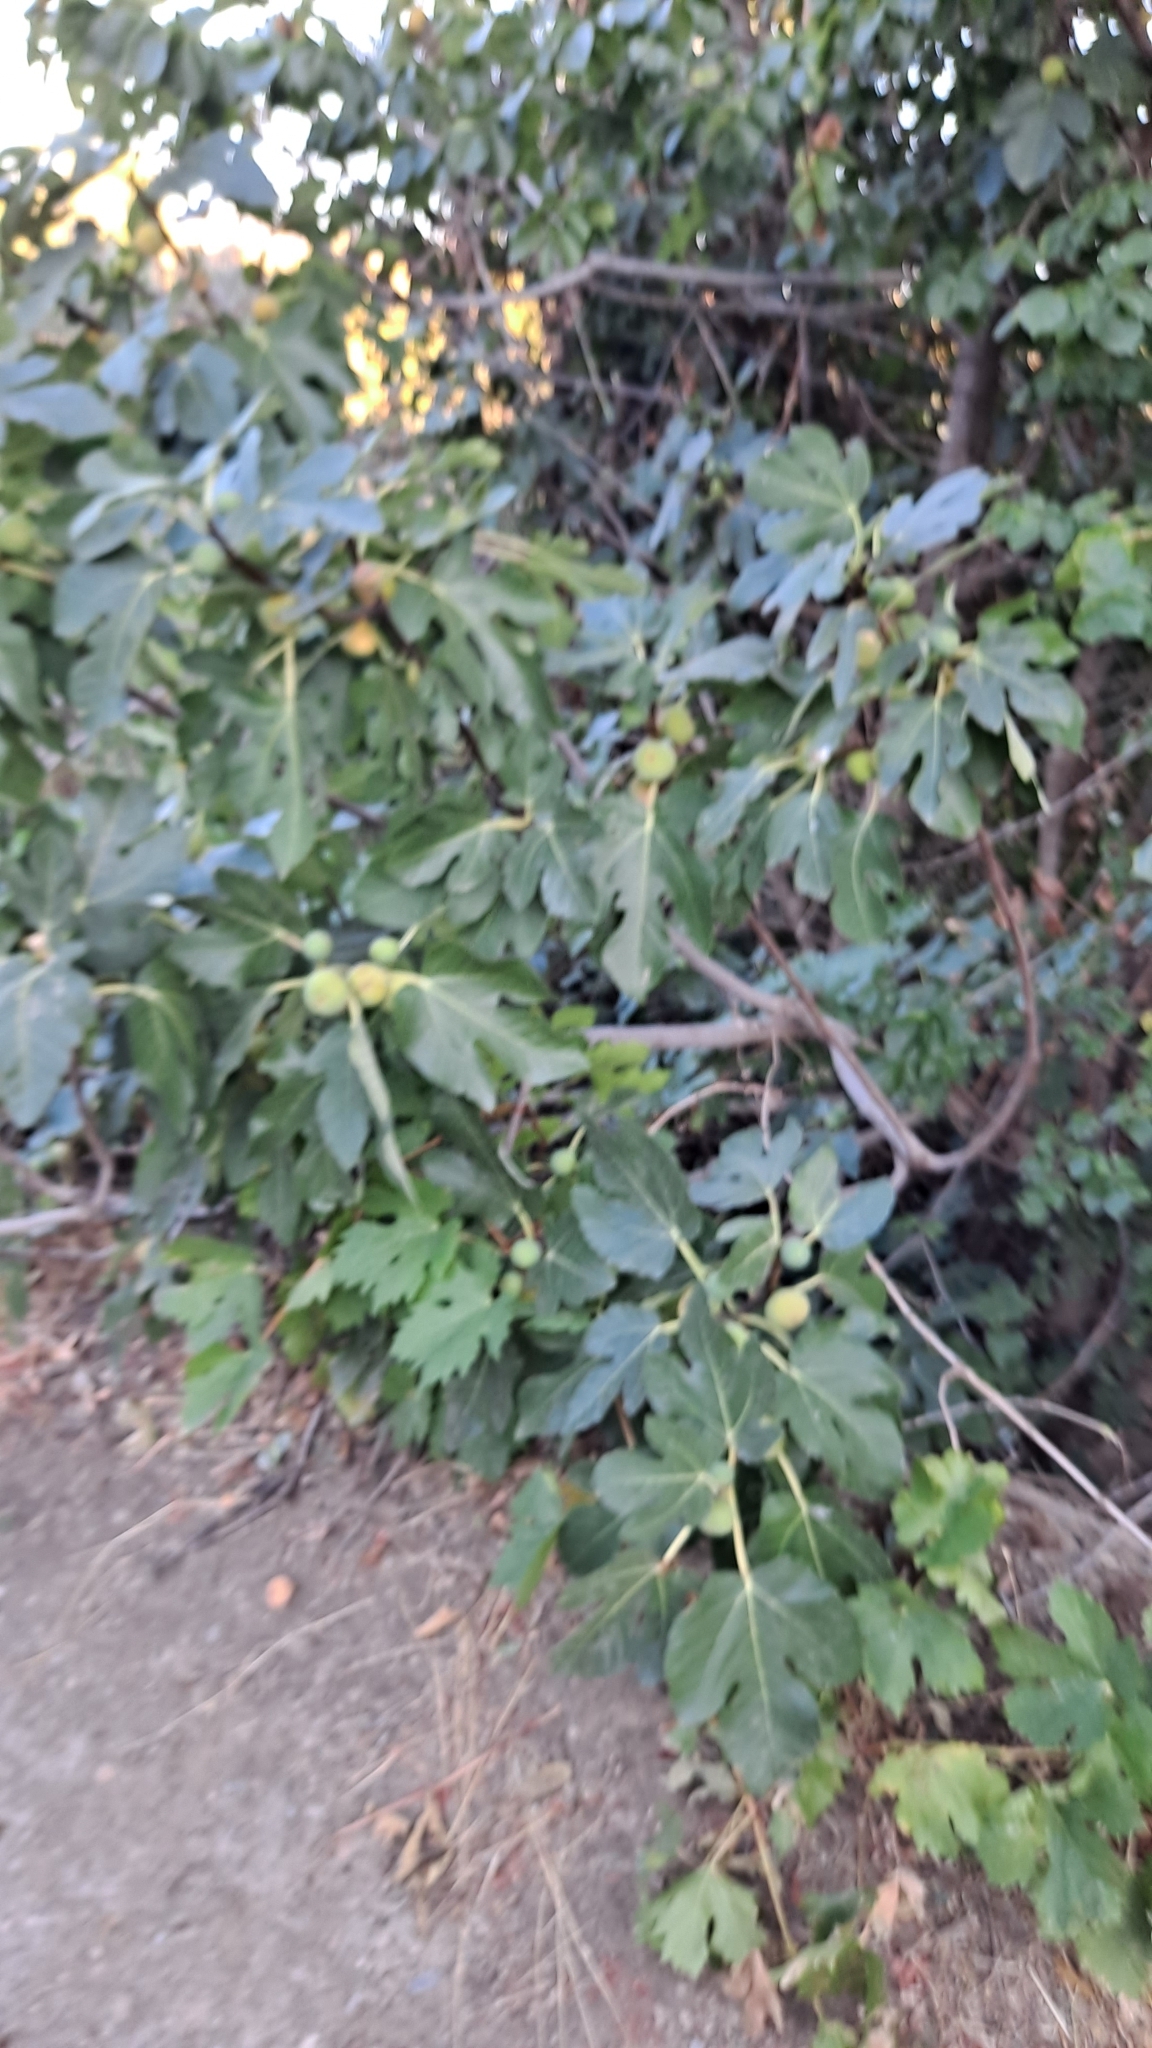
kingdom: Plantae
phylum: Tracheophyta
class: Magnoliopsida
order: Rosales
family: Moraceae
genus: Ficus
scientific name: Ficus carica
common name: Fig
